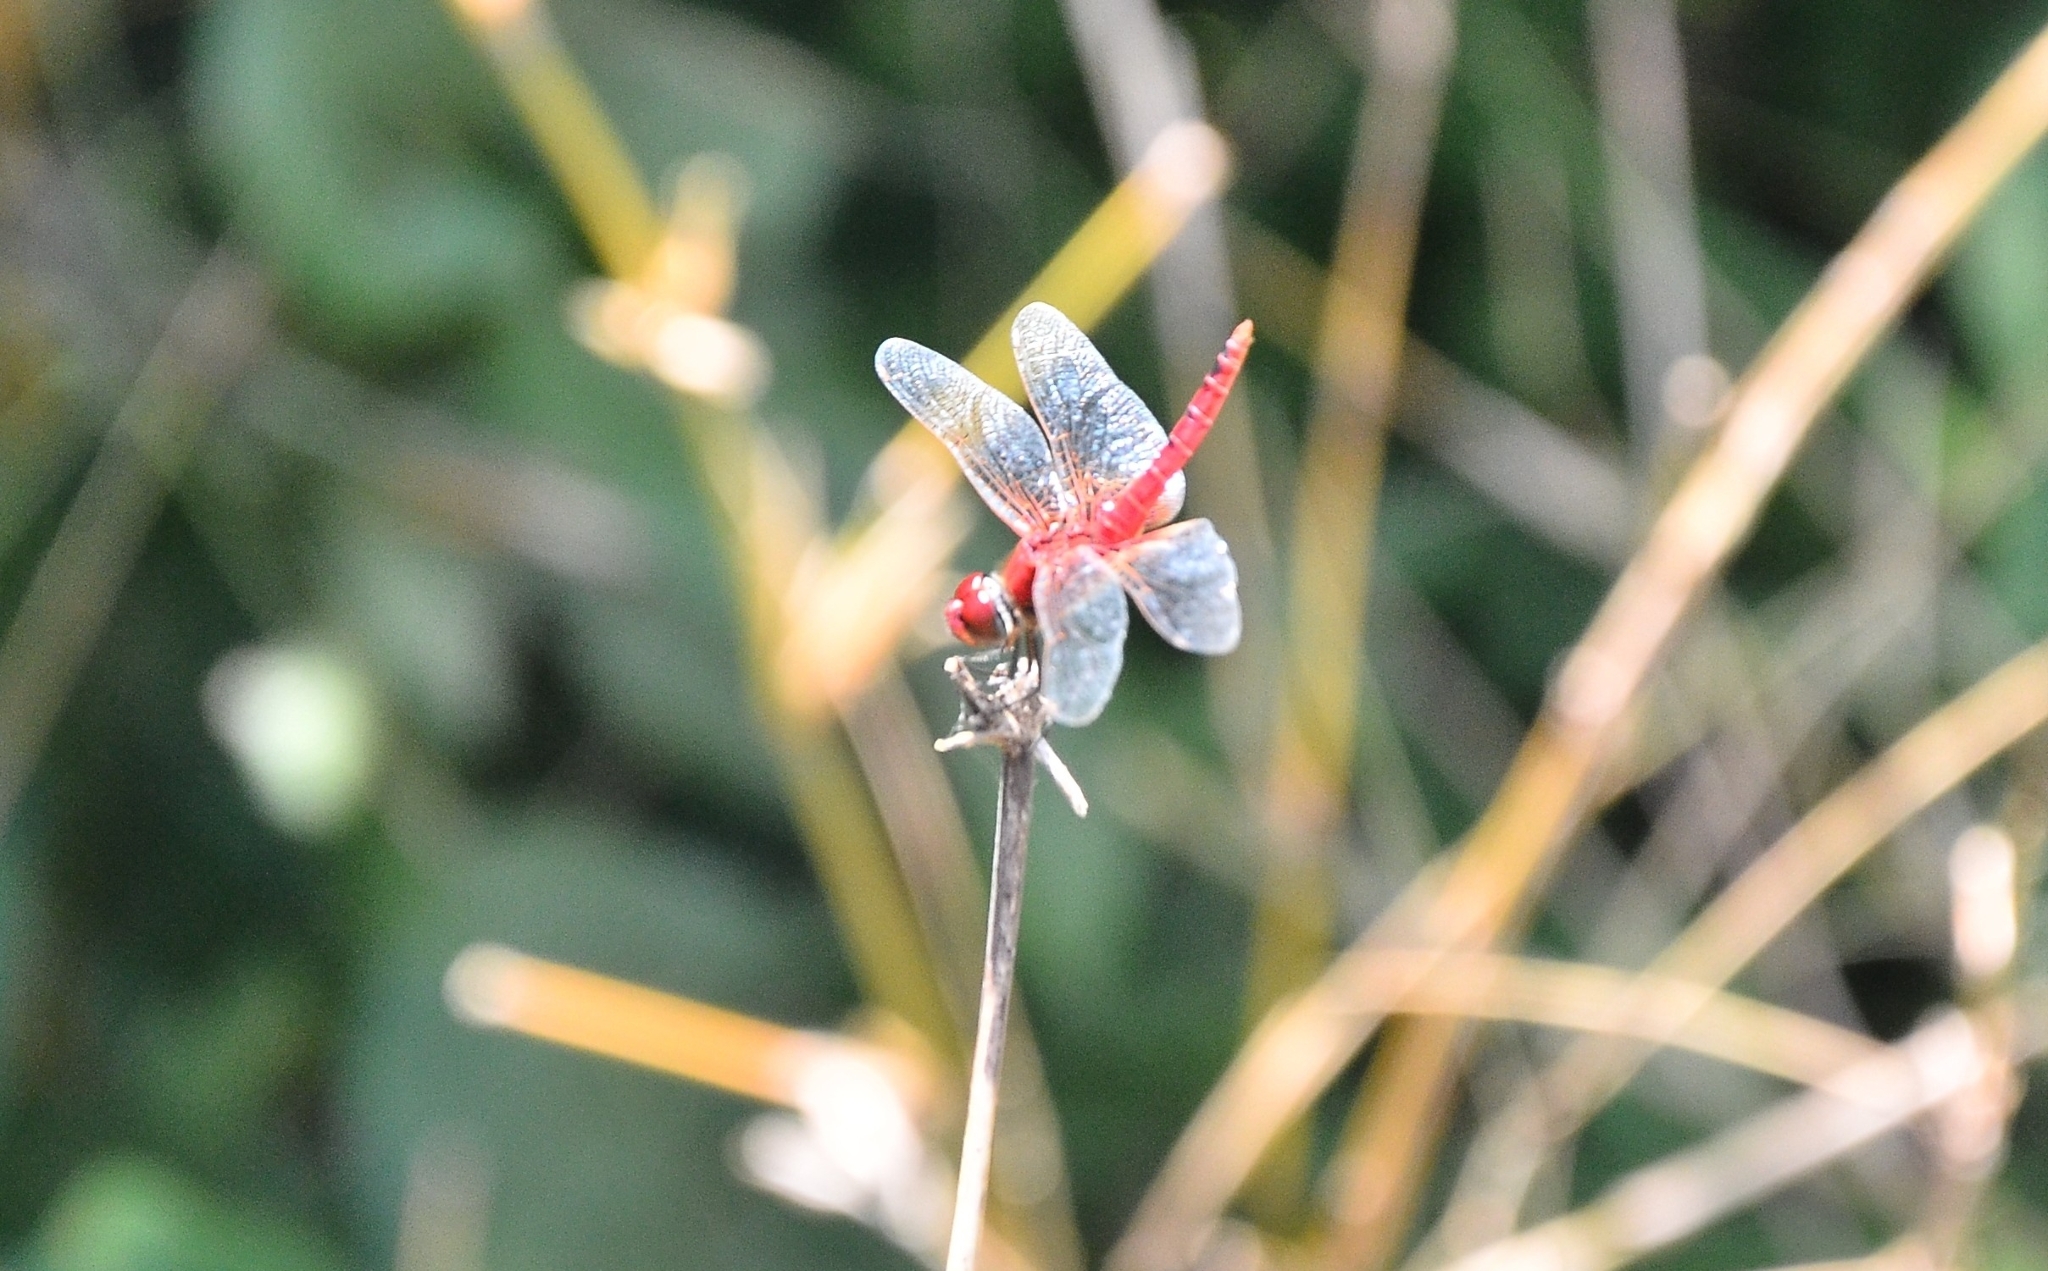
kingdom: Animalia
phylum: Arthropoda
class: Insecta
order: Odonata
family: Libellulidae
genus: Urothemis
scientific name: Urothemis signata
